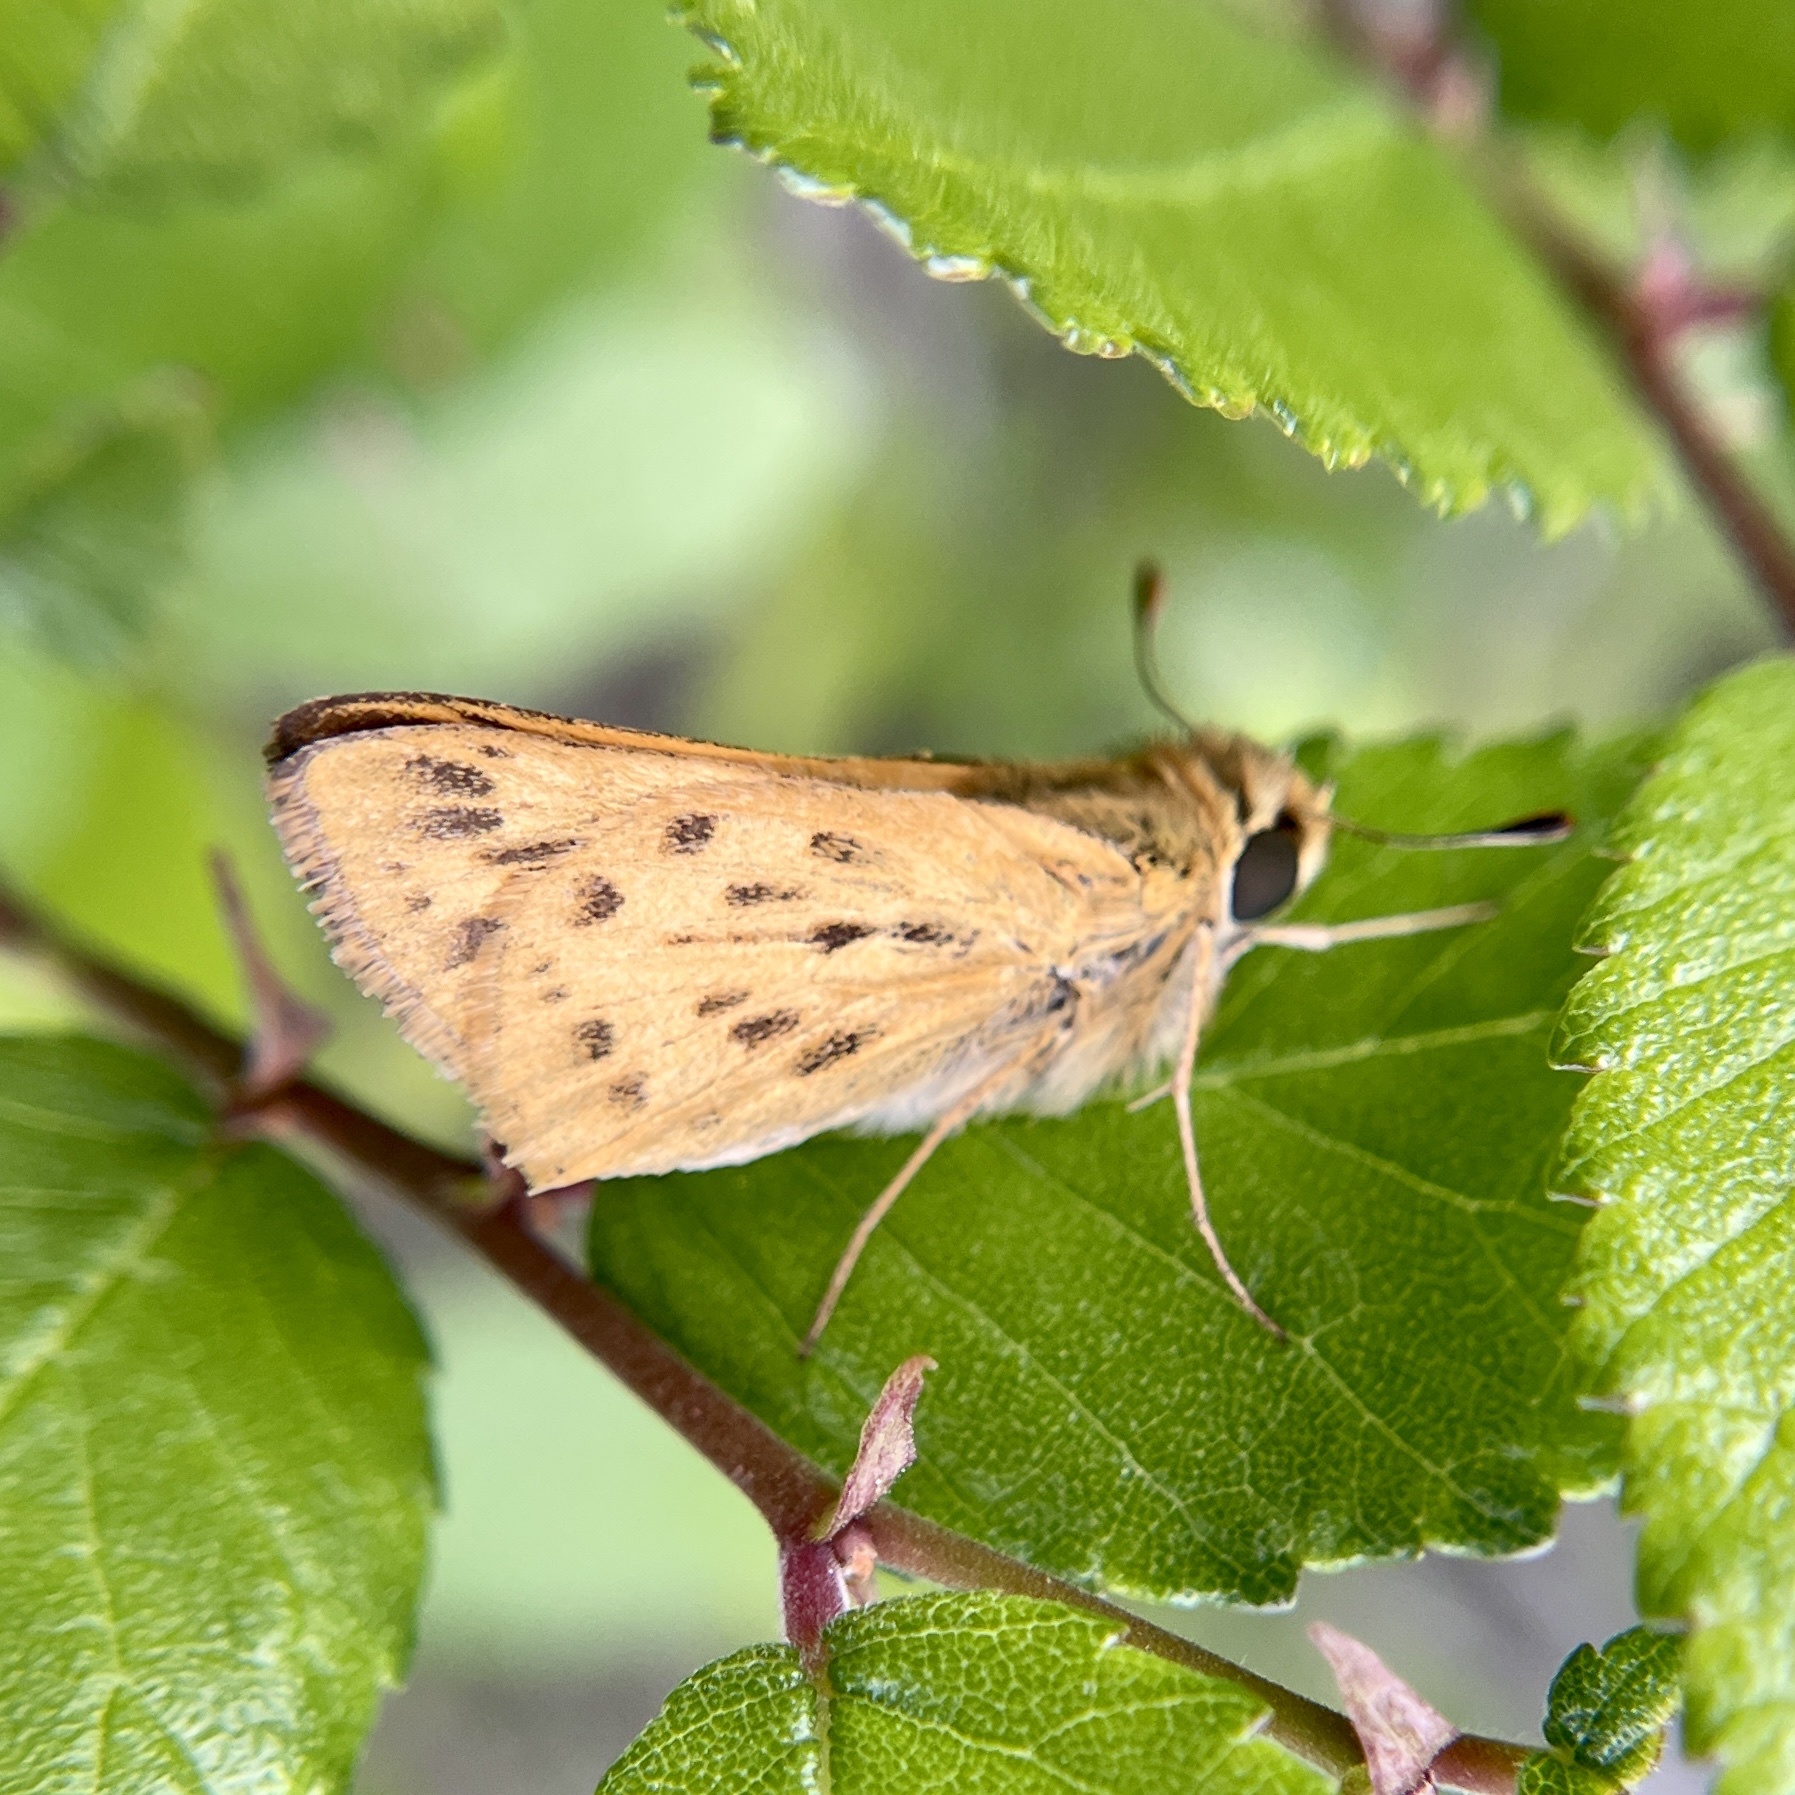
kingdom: Animalia
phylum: Arthropoda
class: Insecta
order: Lepidoptera
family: Hesperiidae
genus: Hylephila
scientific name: Hylephila phyleus
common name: Fiery skipper
